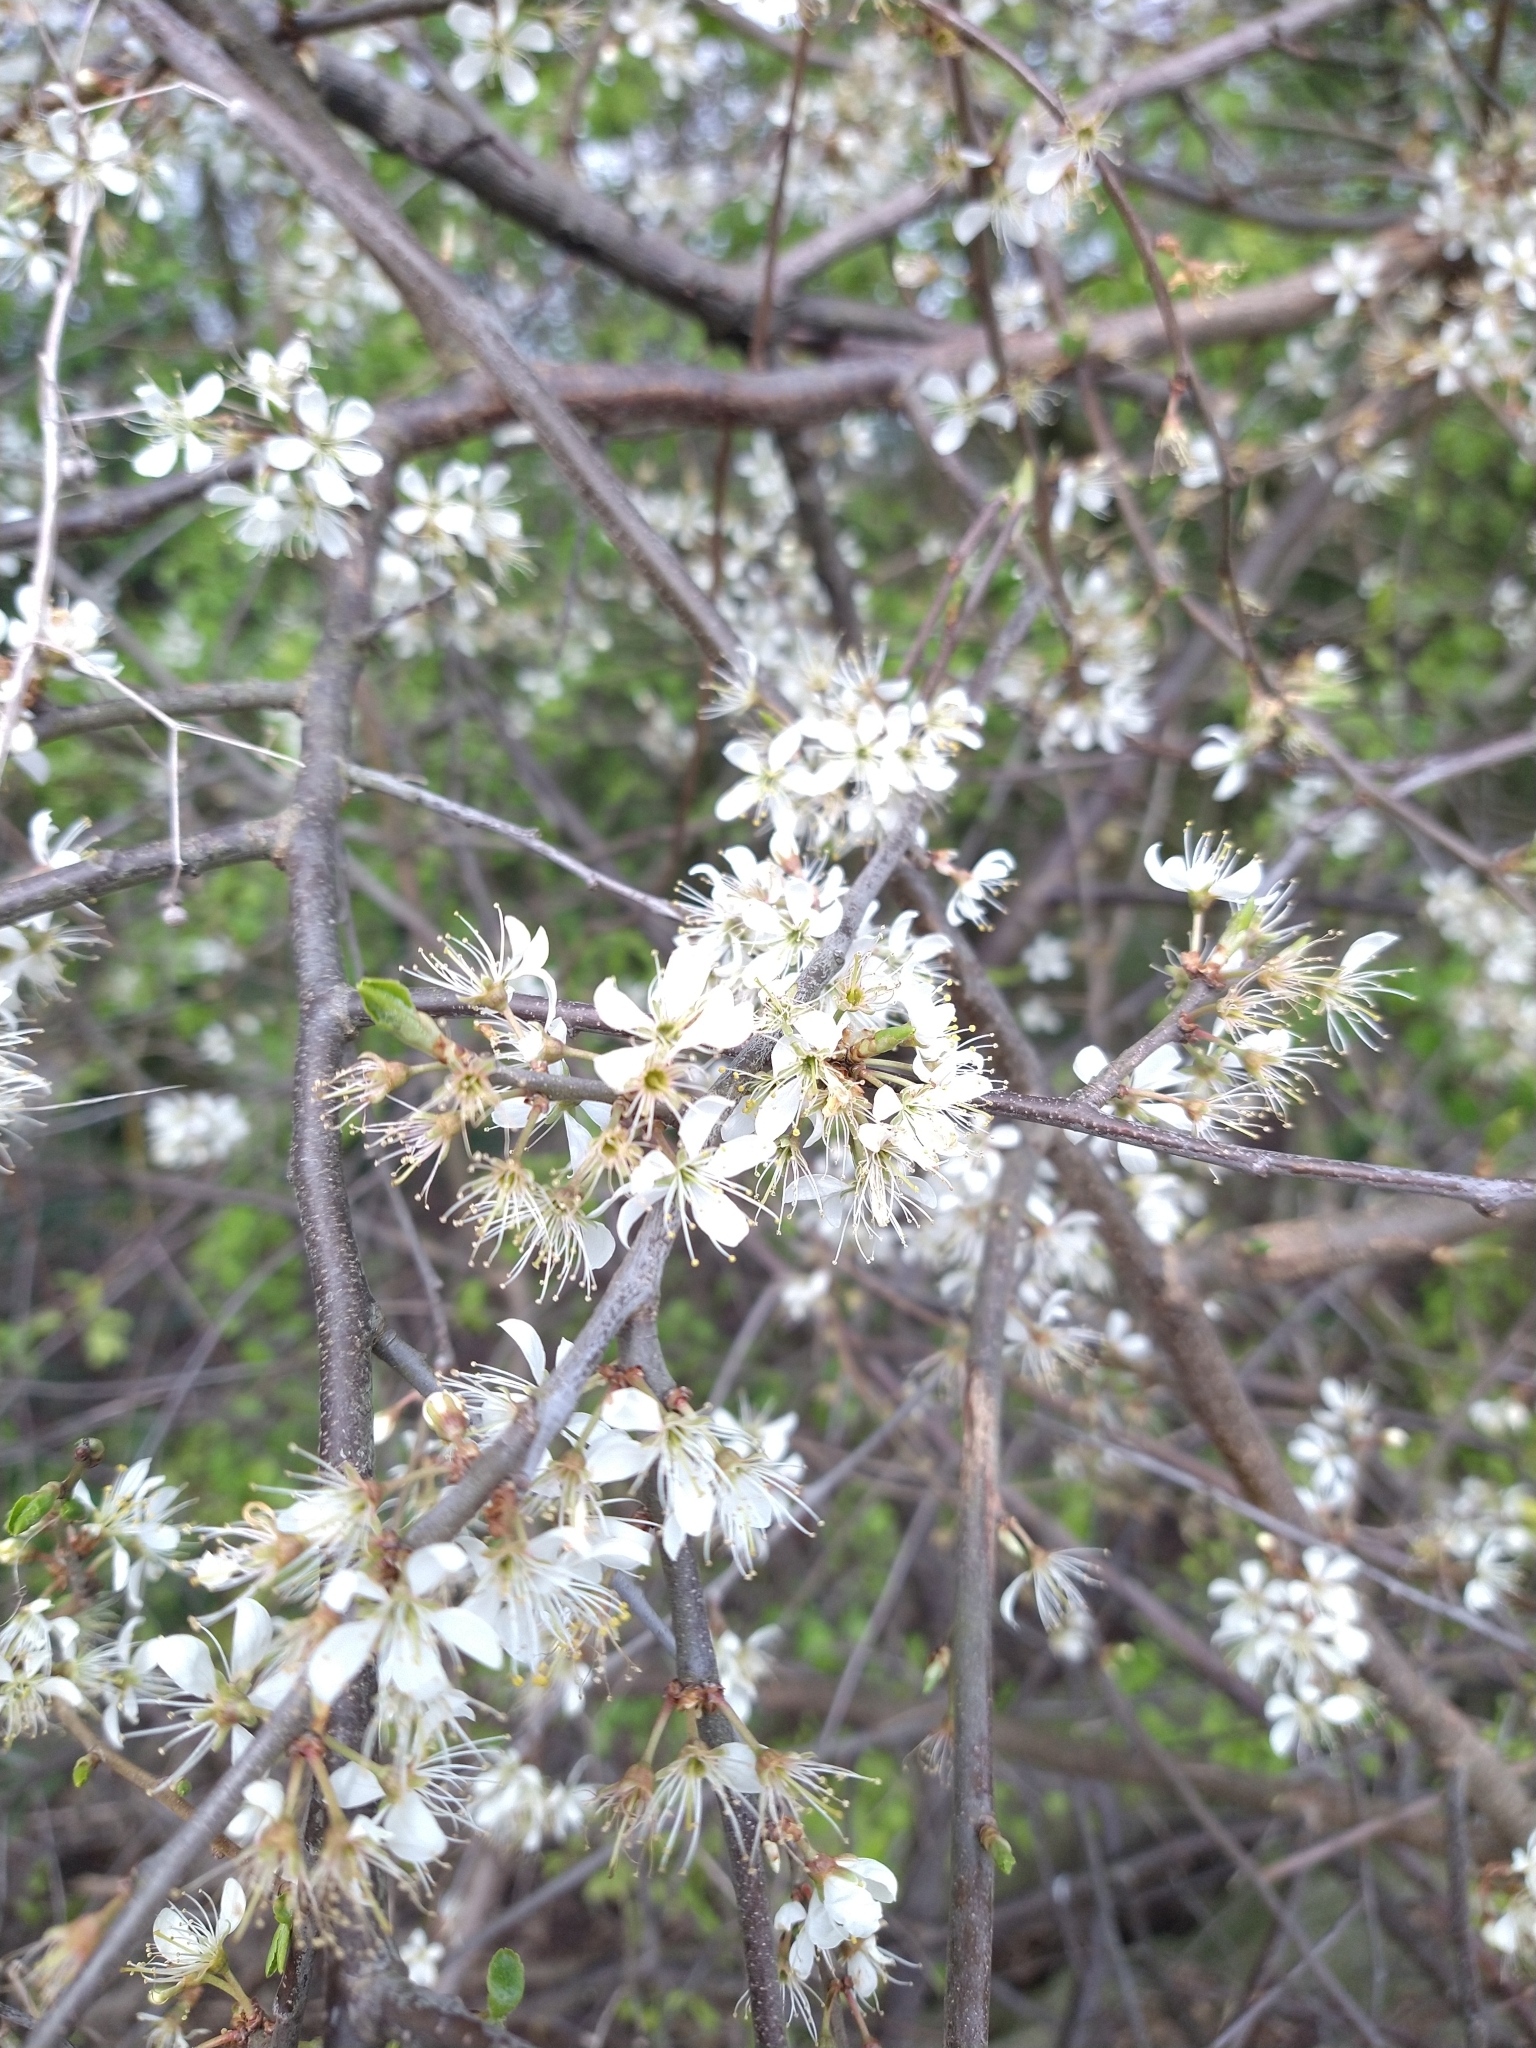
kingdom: Plantae
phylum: Tracheophyta
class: Magnoliopsida
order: Rosales
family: Rosaceae
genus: Prunus
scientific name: Prunus spinosa
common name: Blackthorn
